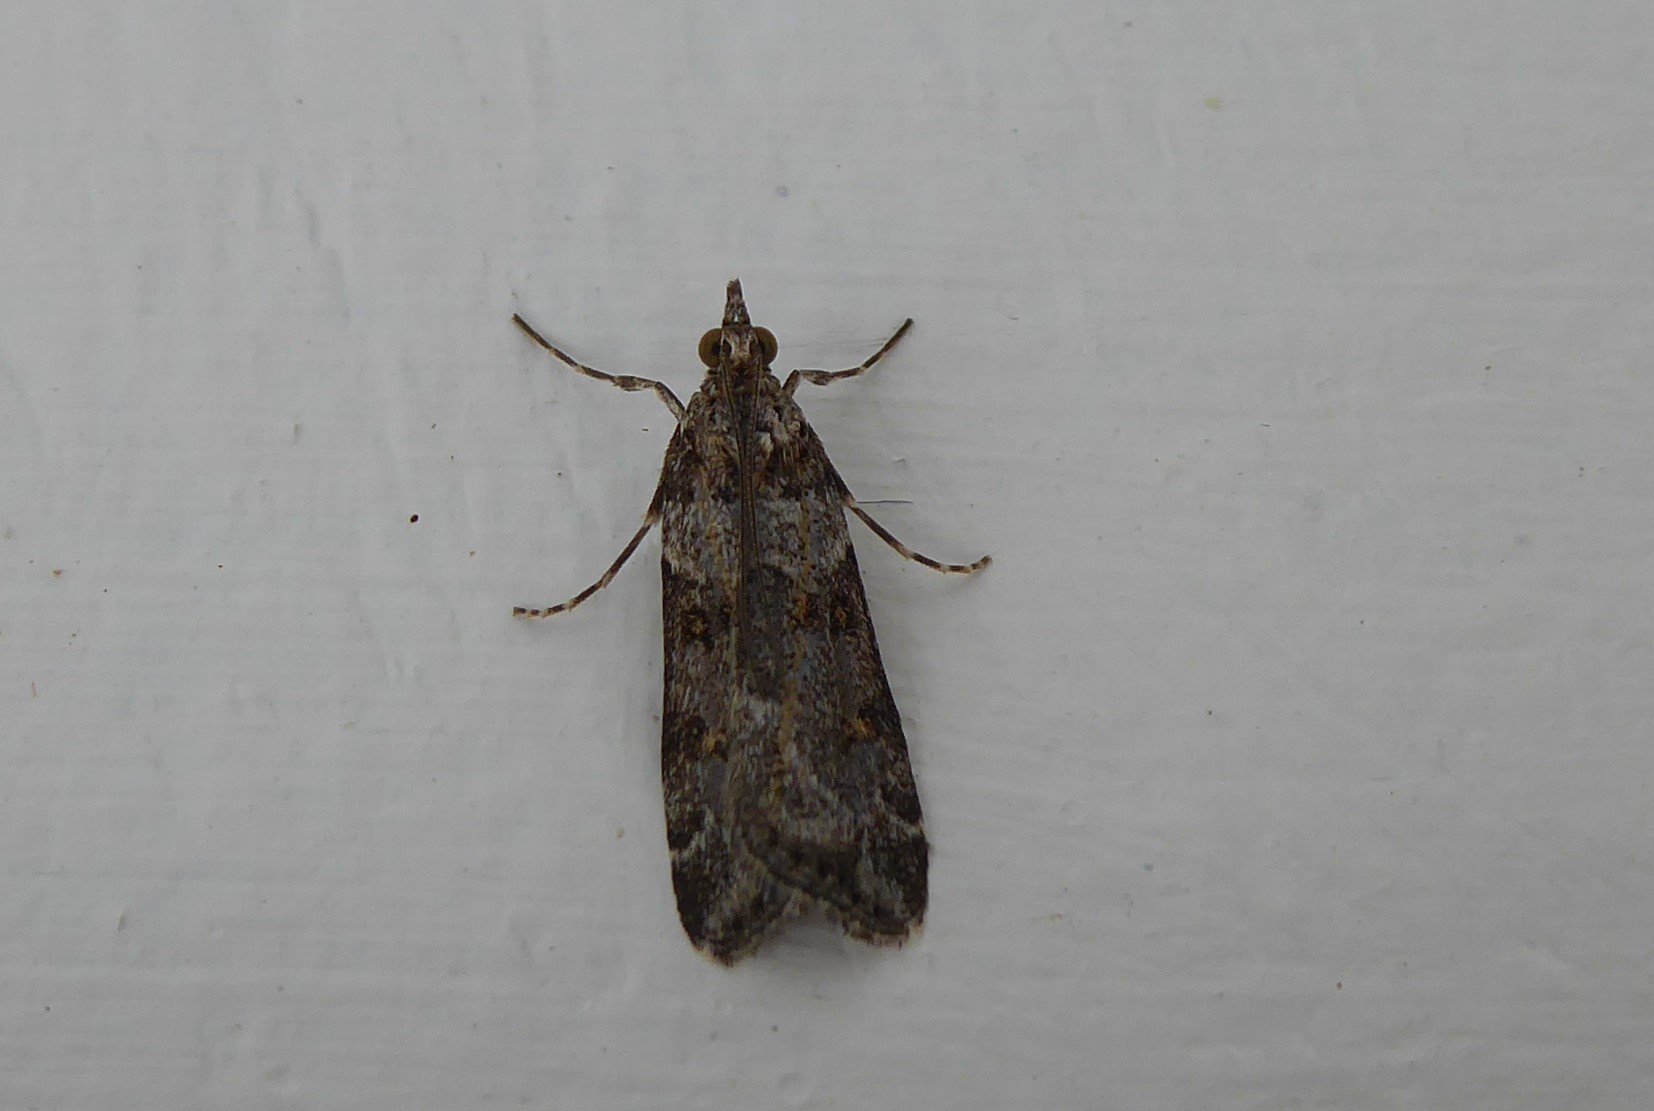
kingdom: Animalia
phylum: Arthropoda
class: Insecta
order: Lepidoptera
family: Crambidae
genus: Eudonia
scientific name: Eudonia diphtheralis
